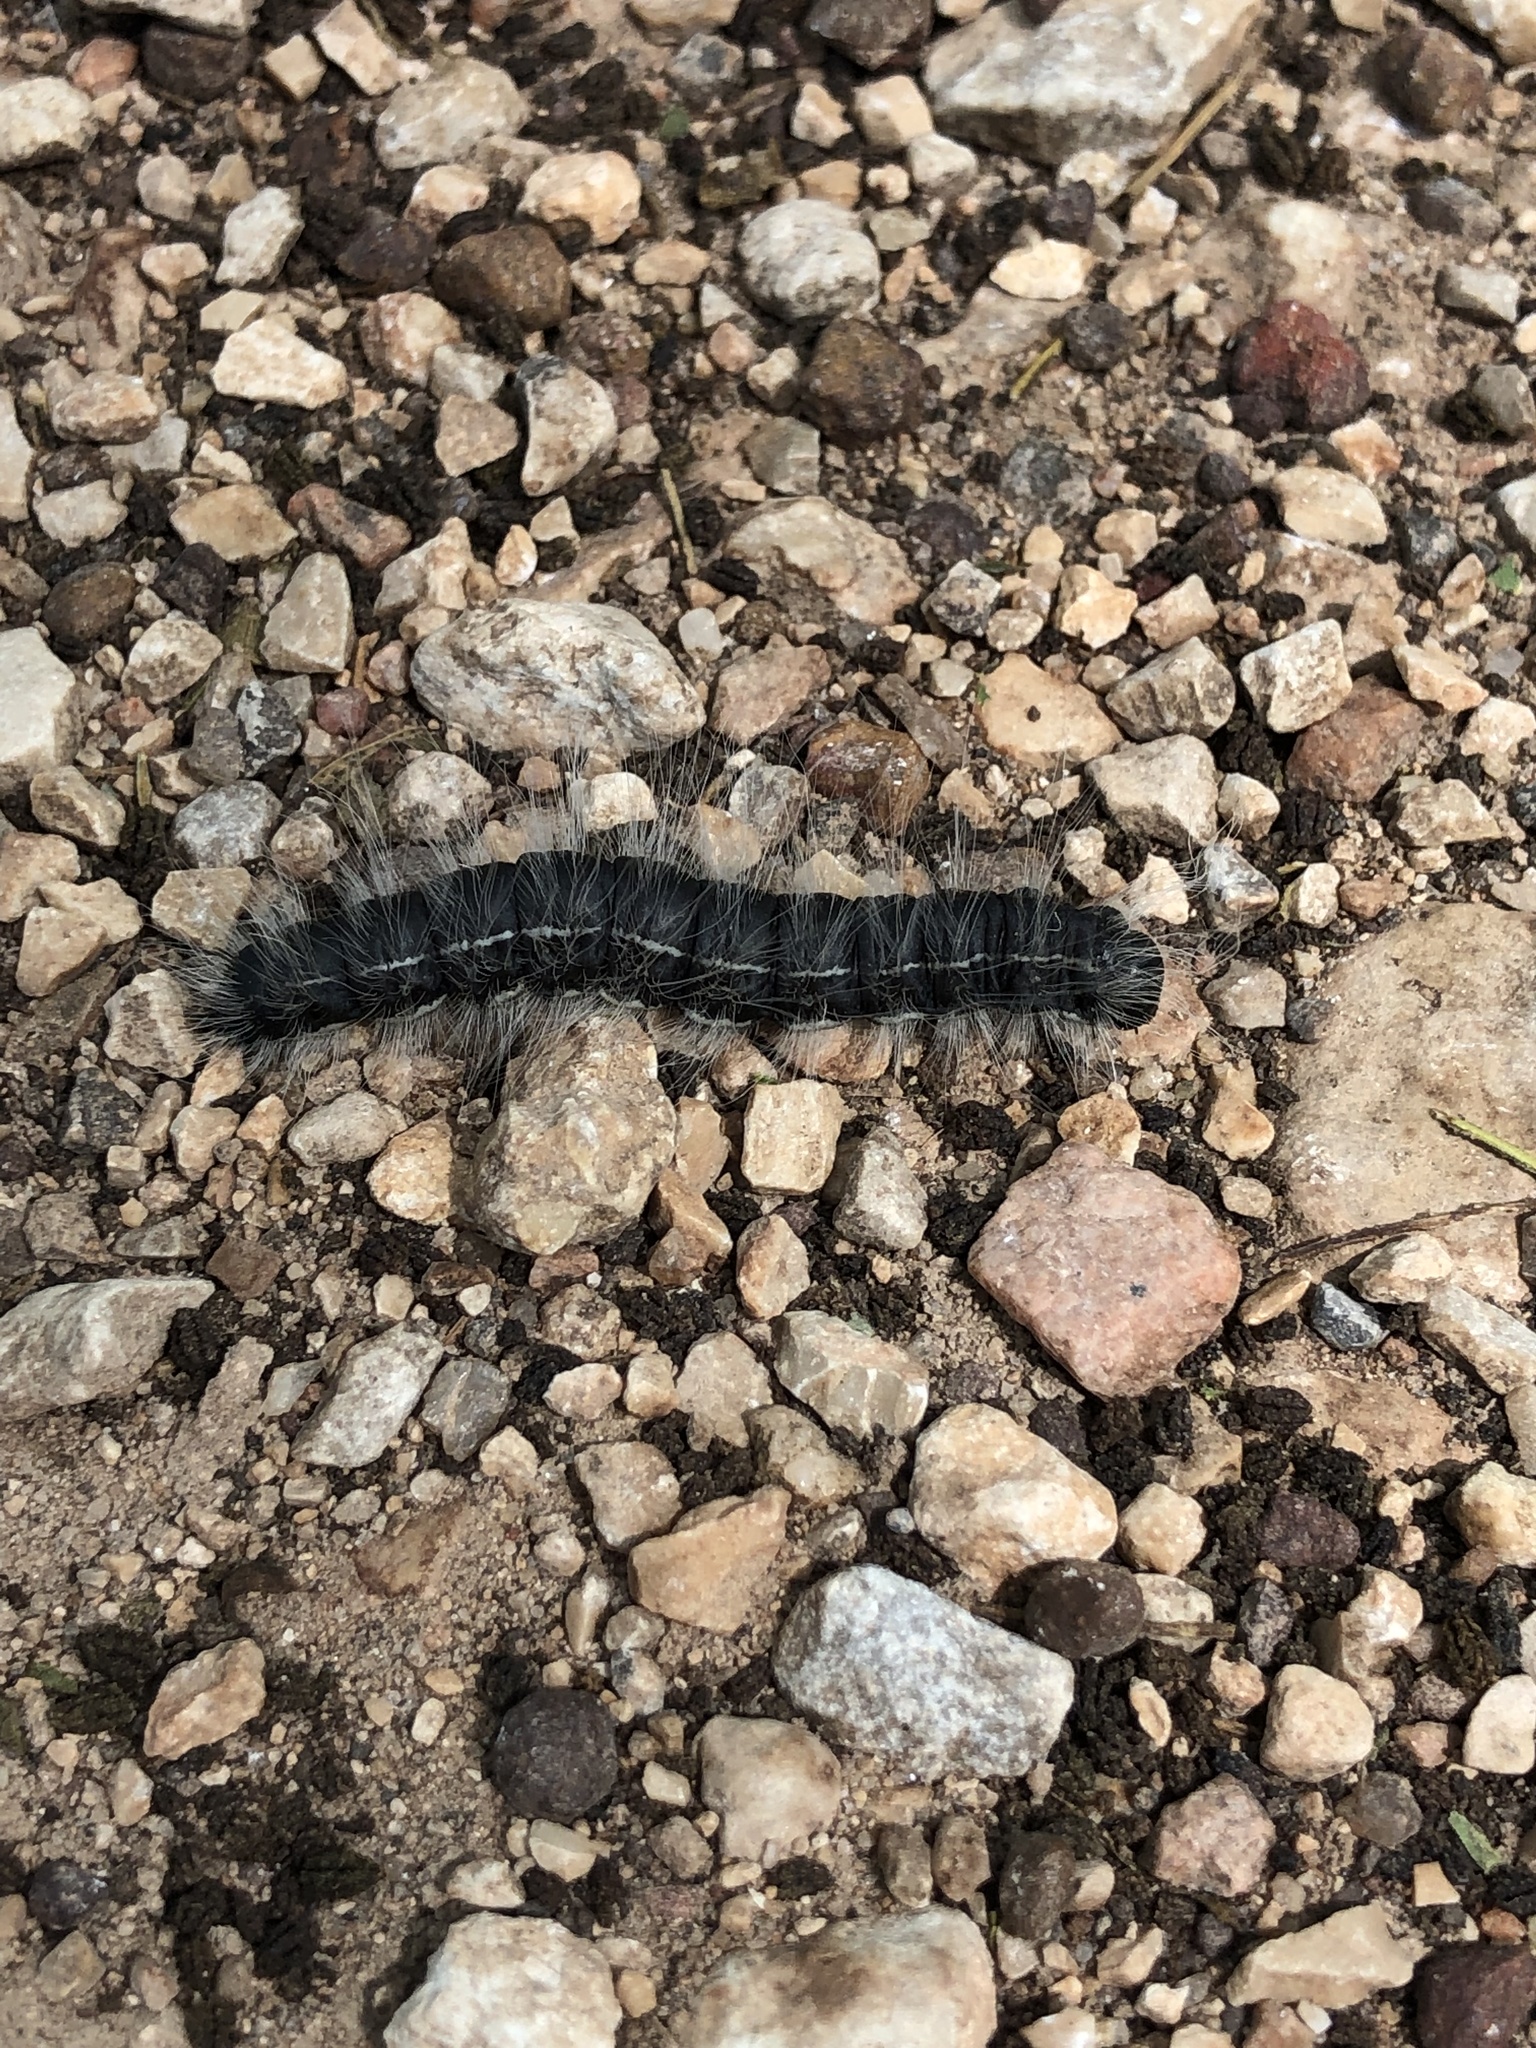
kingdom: Animalia
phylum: Arthropoda
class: Insecta
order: Lepidoptera
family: Notodontidae
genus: Datana
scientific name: Datana integerrima
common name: Walnut caterpillar
